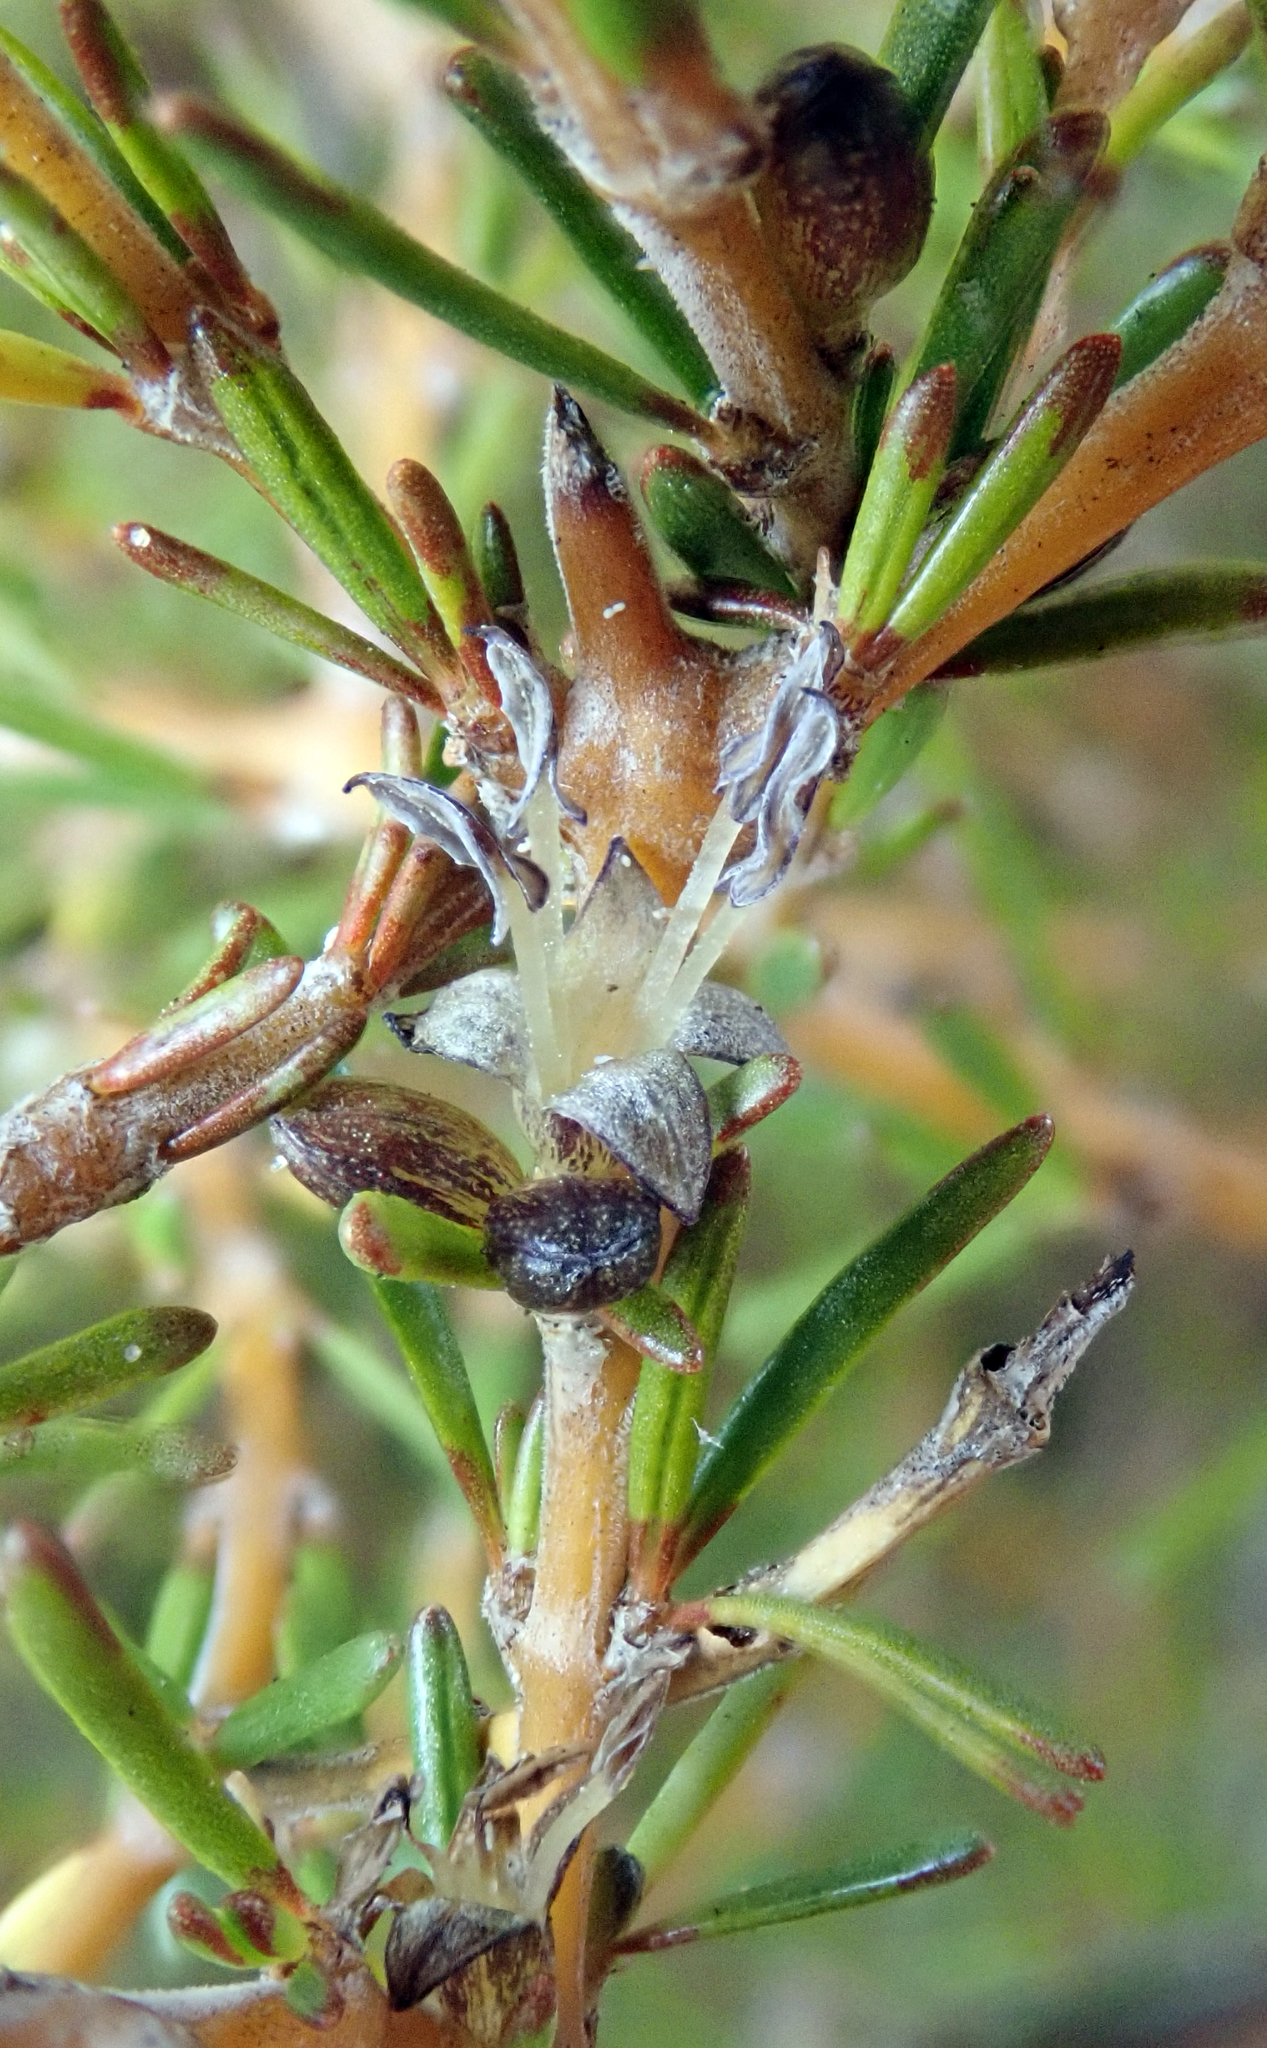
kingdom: Plantae
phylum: Tracheophyta
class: Magnoliopsida
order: Gentianales
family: Rubiaceae
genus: Coprosma
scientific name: Coprosma acerosa
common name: Sand coprosma
